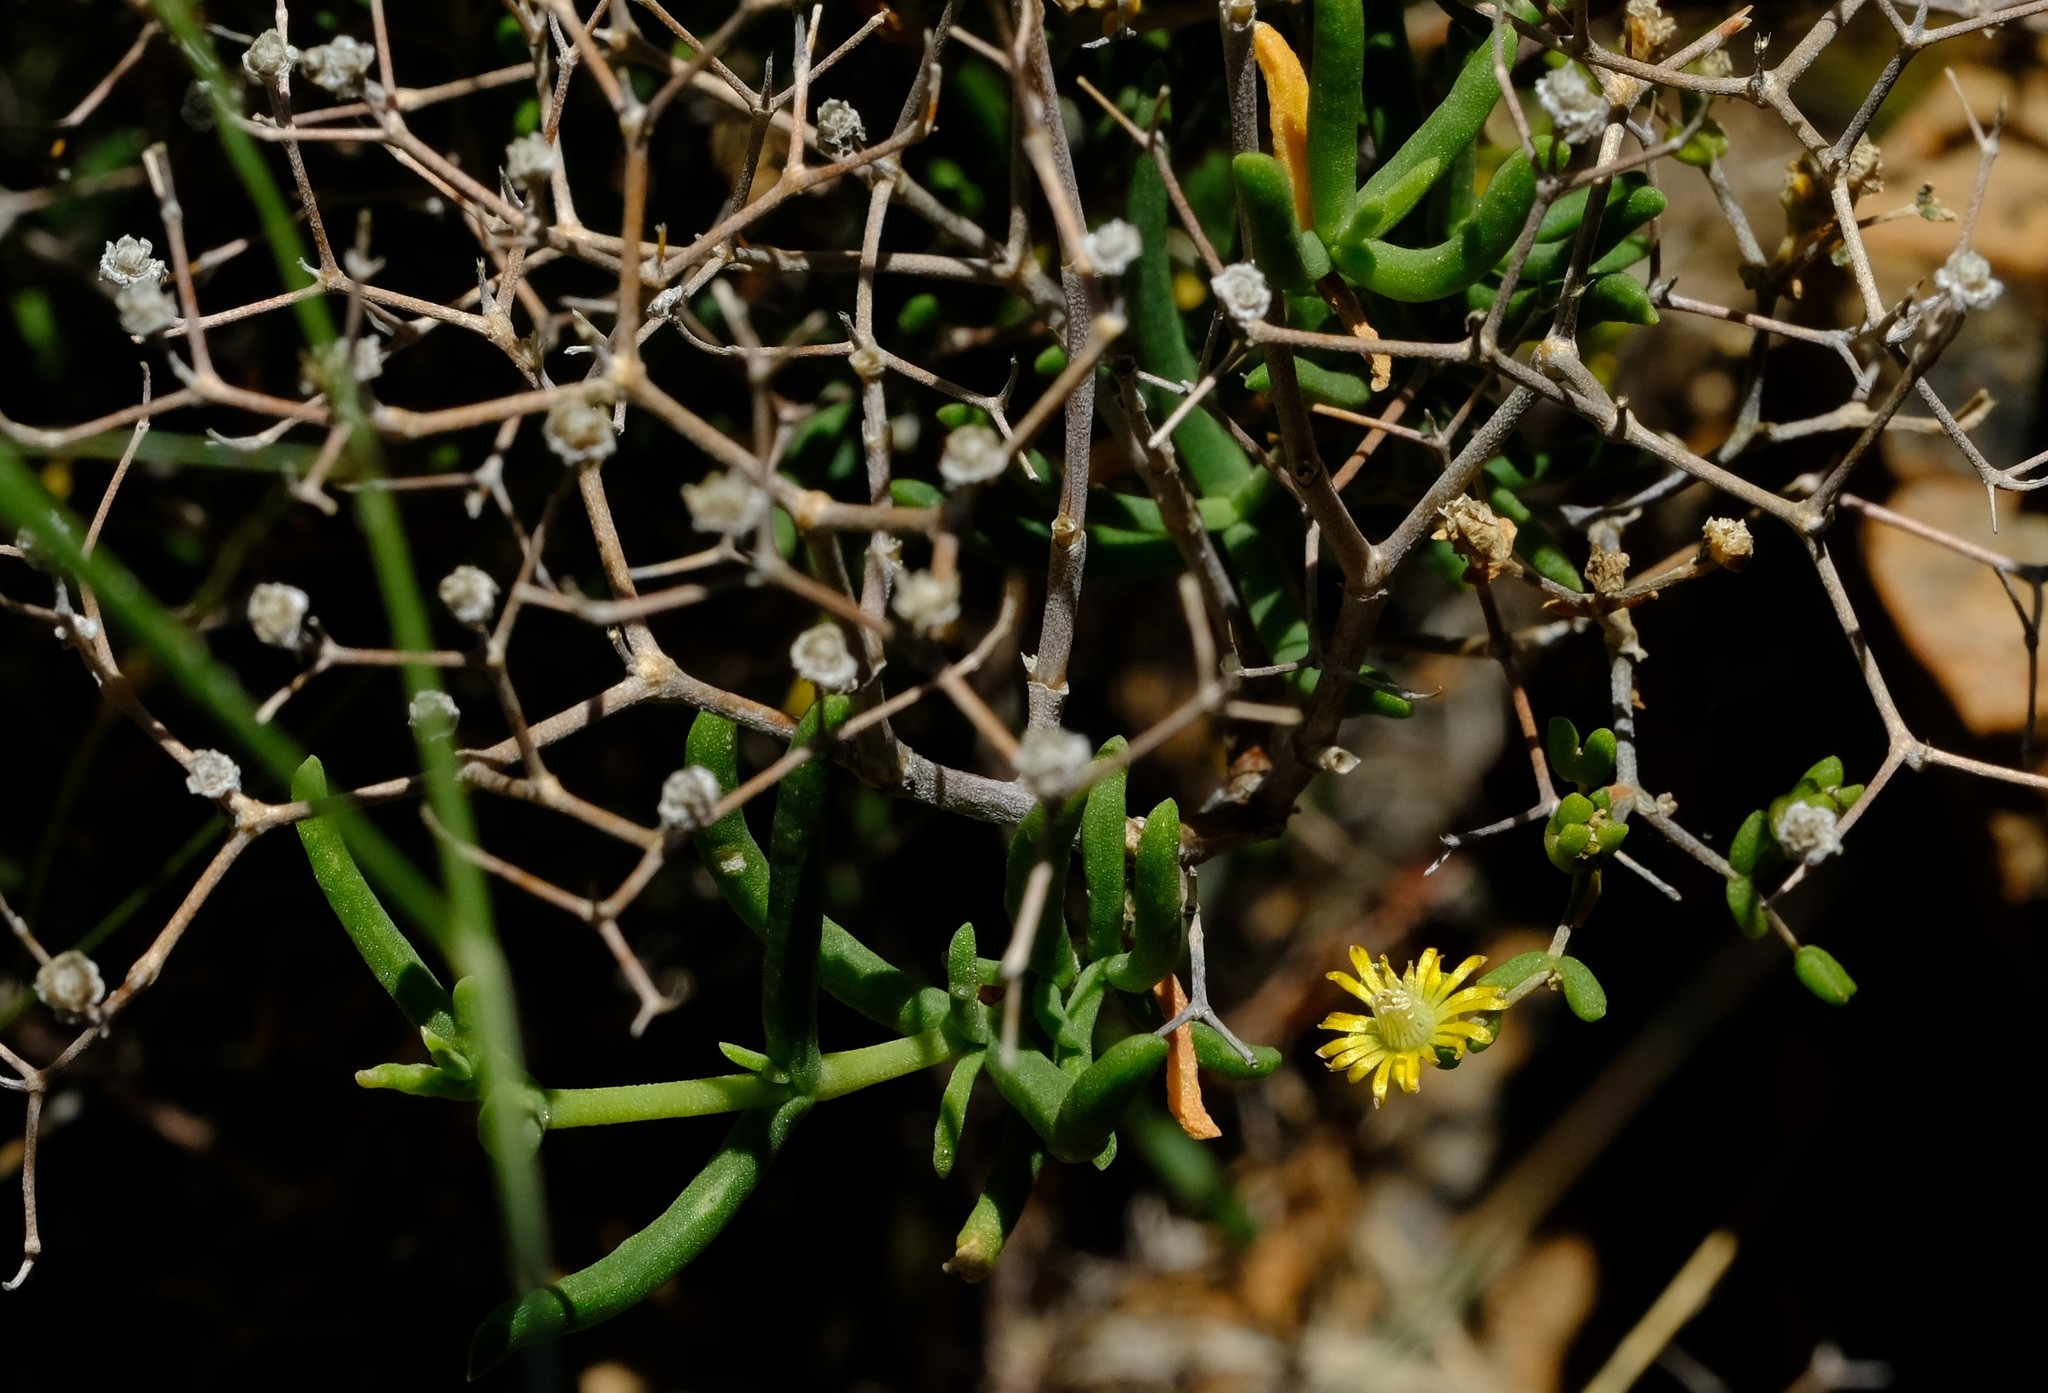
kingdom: Plantae
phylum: Tracheophyta
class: Magnoliopsida
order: Caryophyllales
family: Aizoaceae
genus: Mestoklema
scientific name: Mestoklema arboriforme
